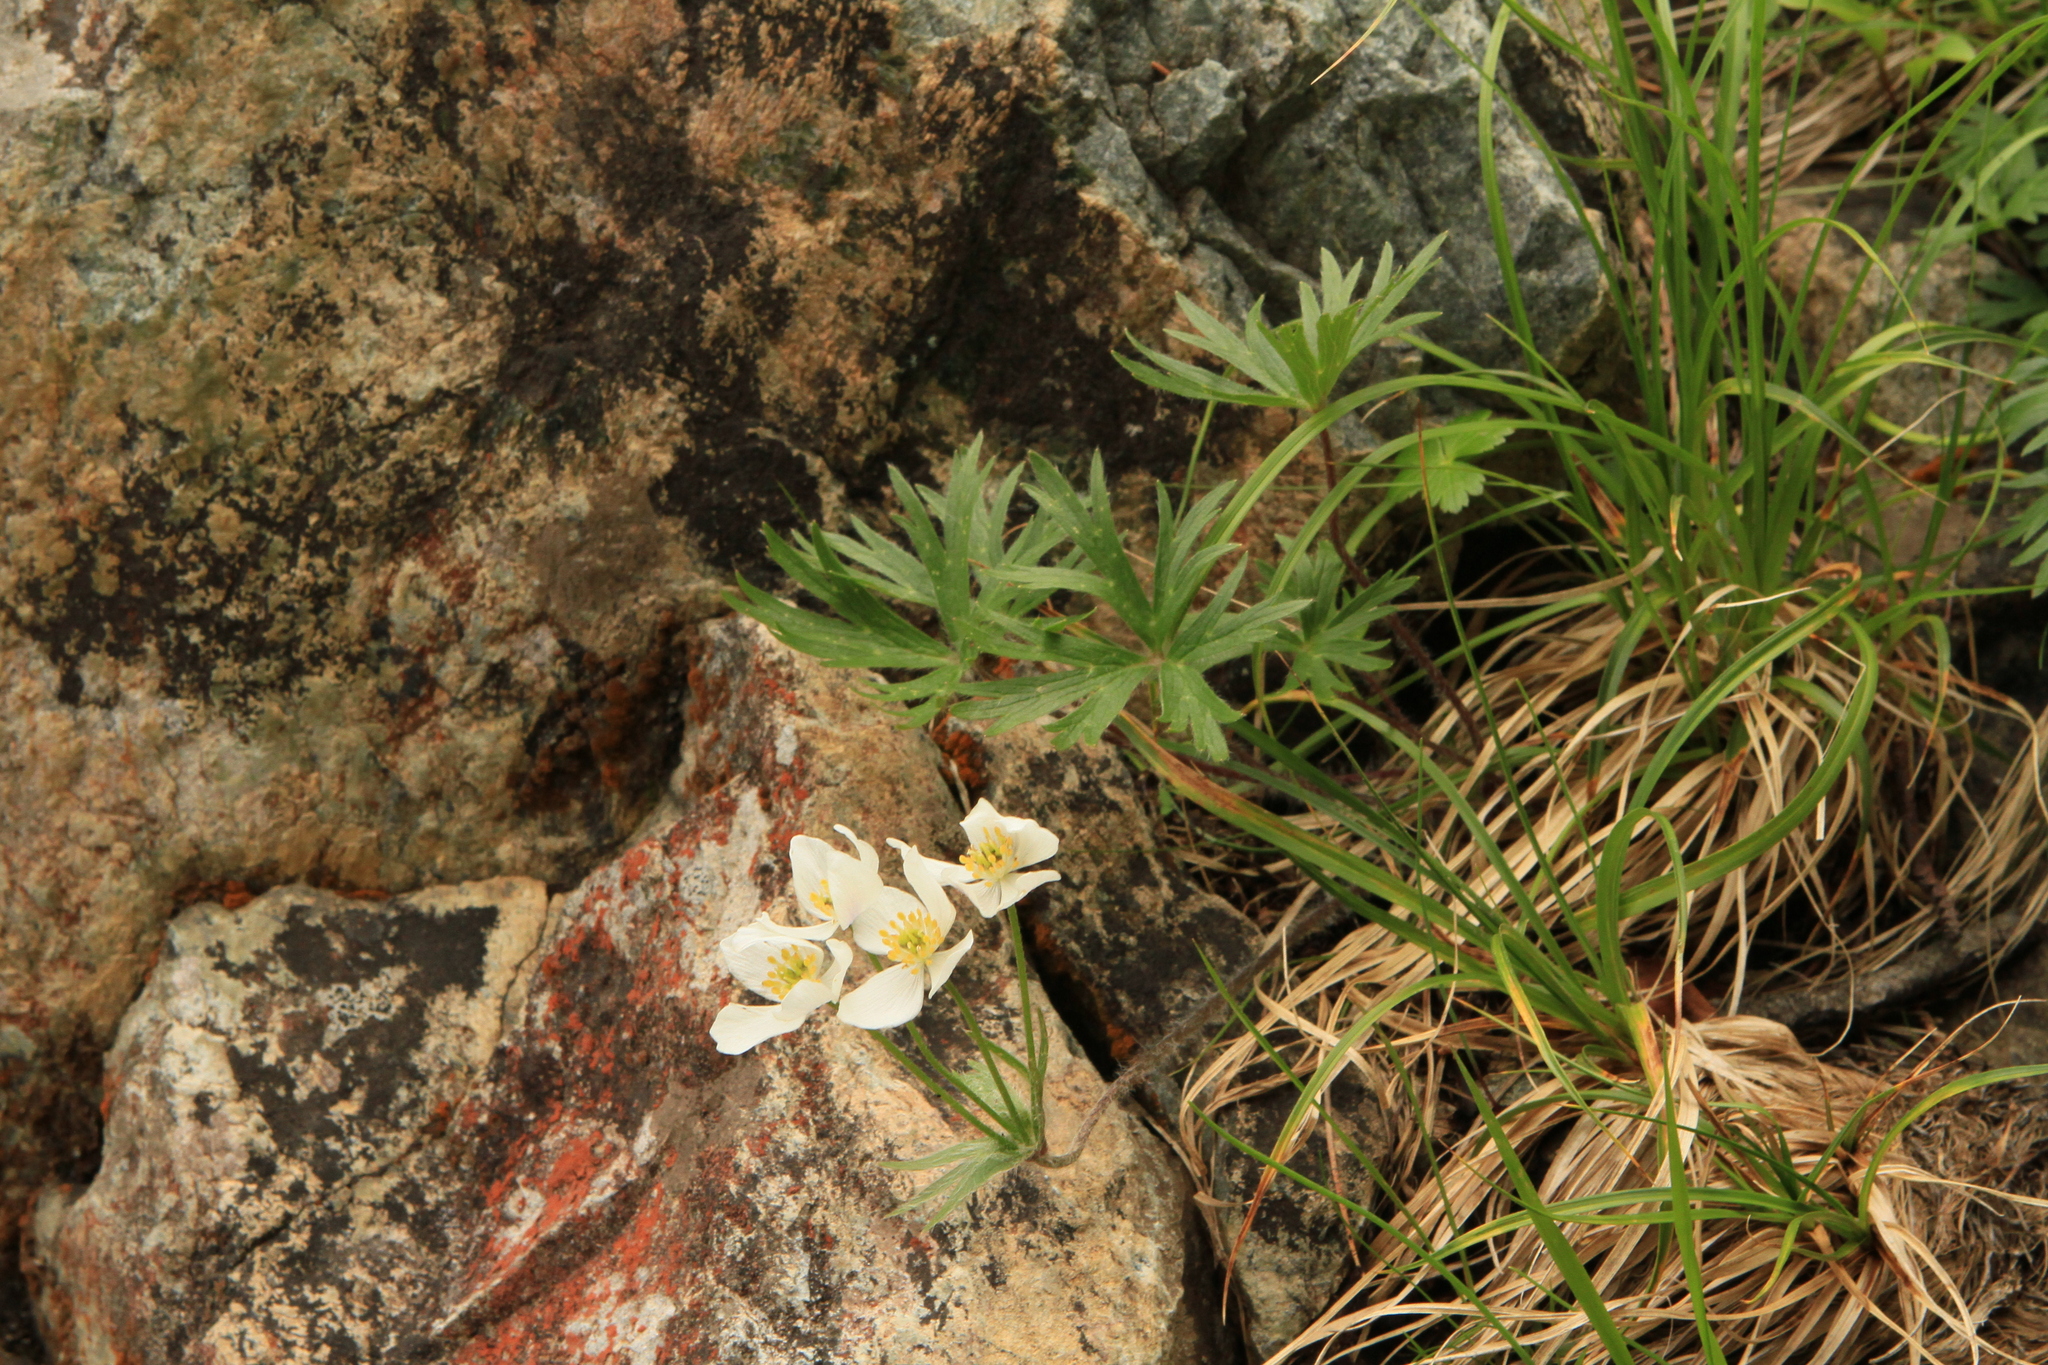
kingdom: Plantae
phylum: Tracheophyta
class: Magnoliopsida
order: Ranunculales
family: Ranunculaceae
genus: Anemonastrum
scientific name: Anemonastrum narcissiflorum
